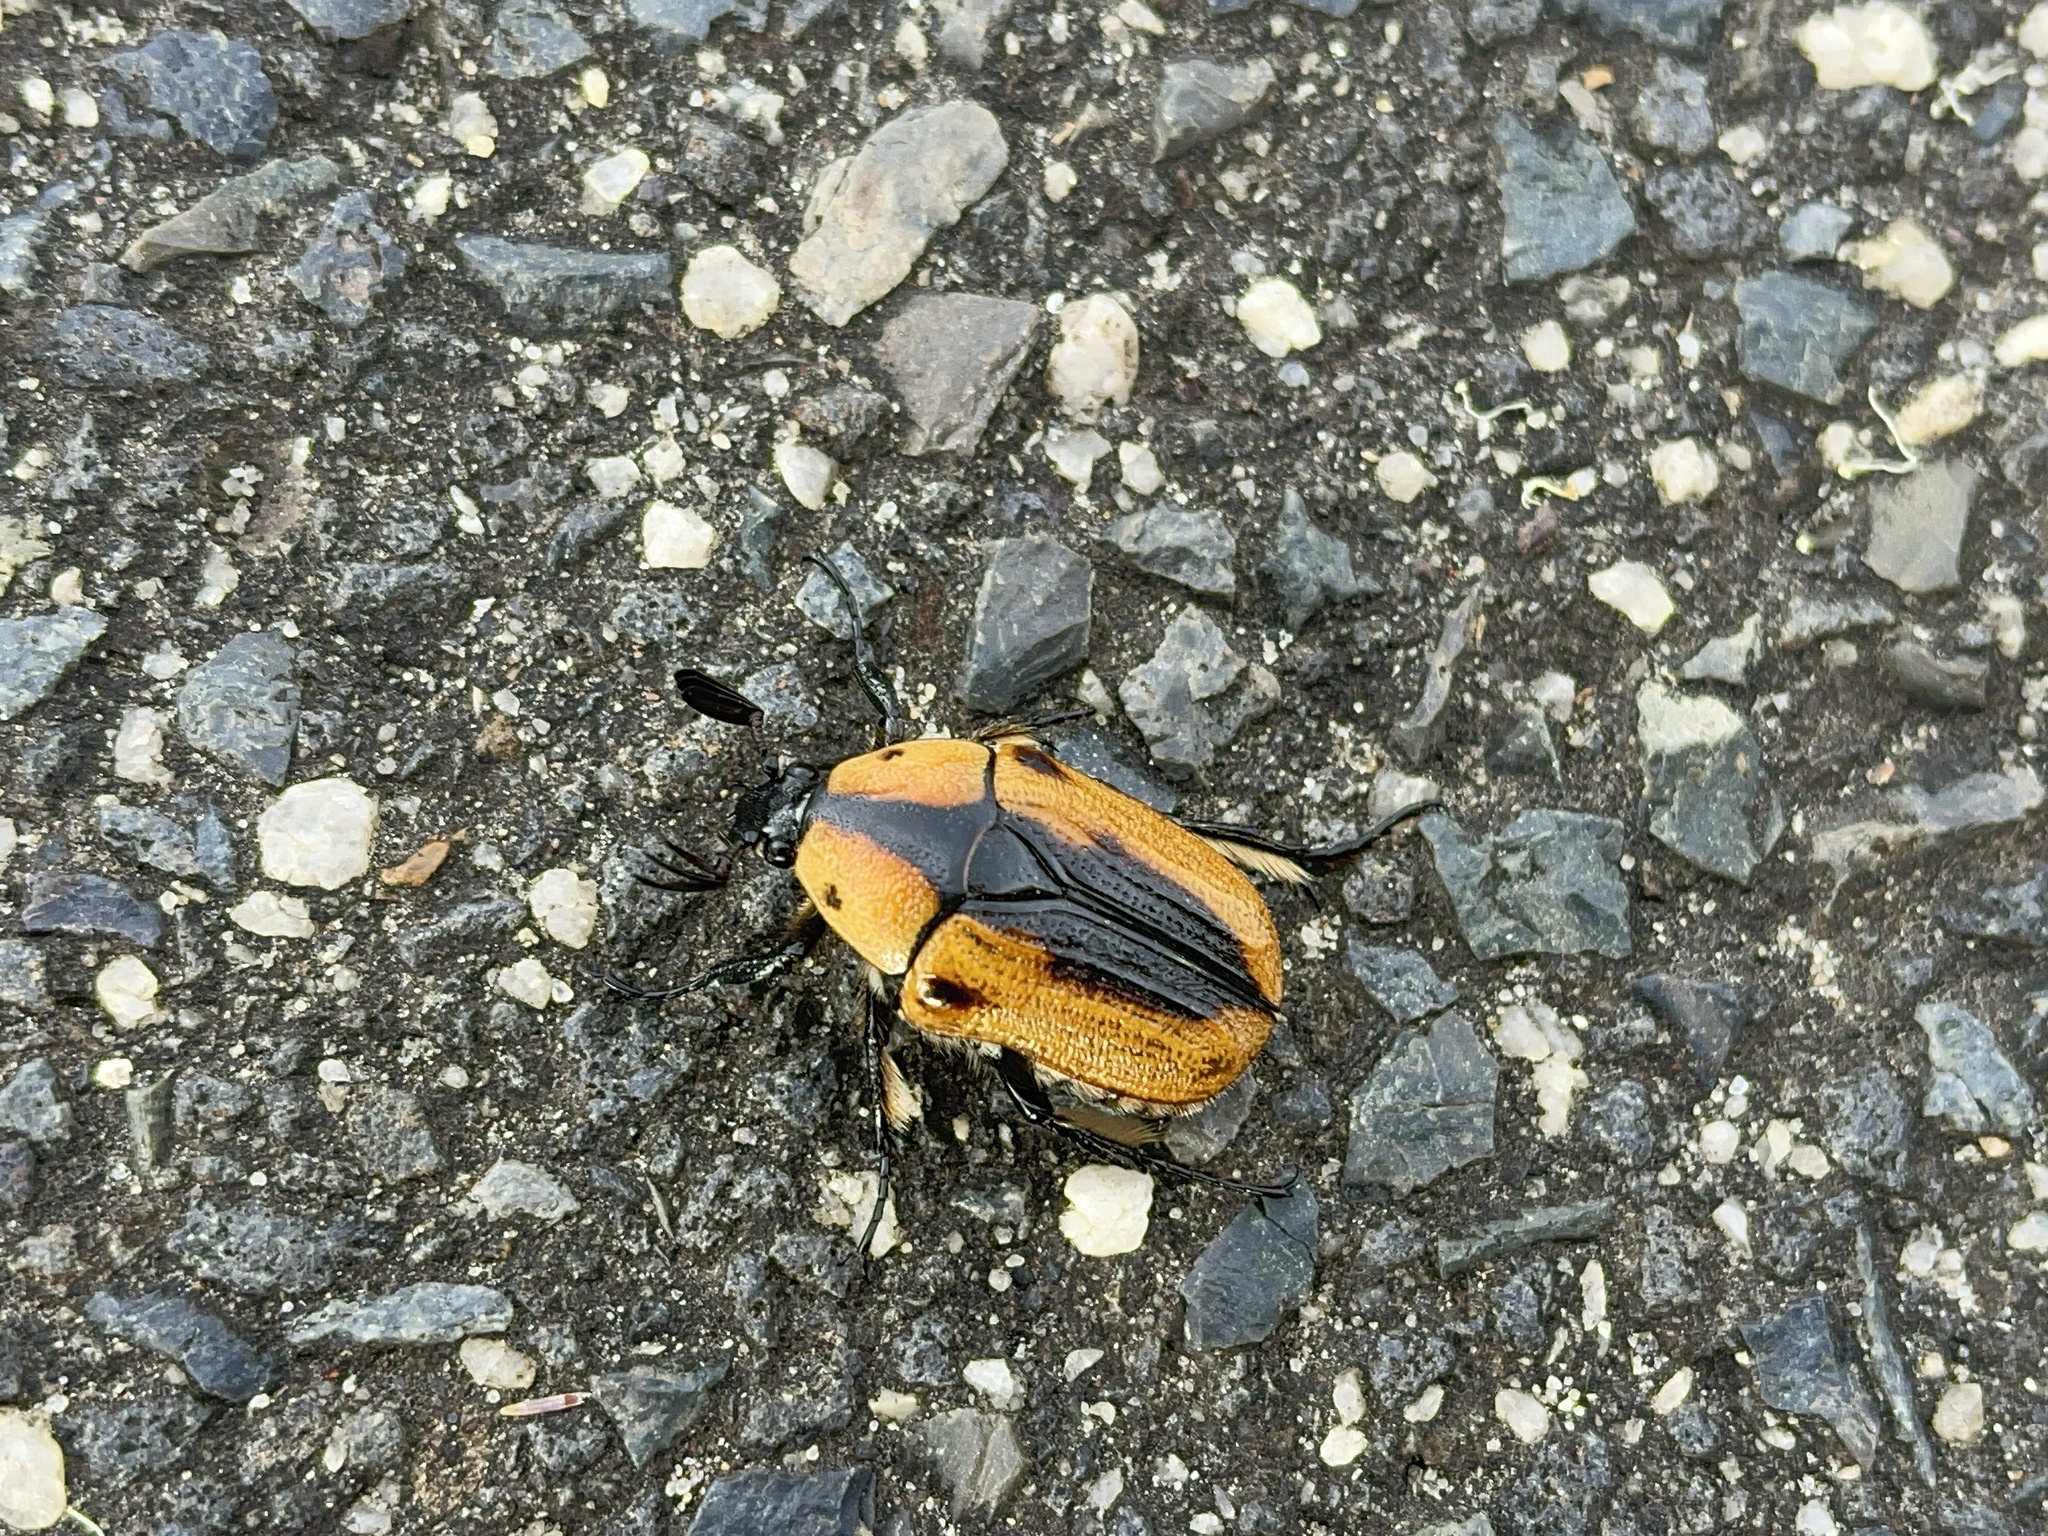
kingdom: Animalia
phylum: Arthropoda
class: Insecta
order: Coleoptera
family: Scarabaeidae
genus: Chondropyga
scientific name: Chondropyga dorsalis
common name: Cowboy beetle
